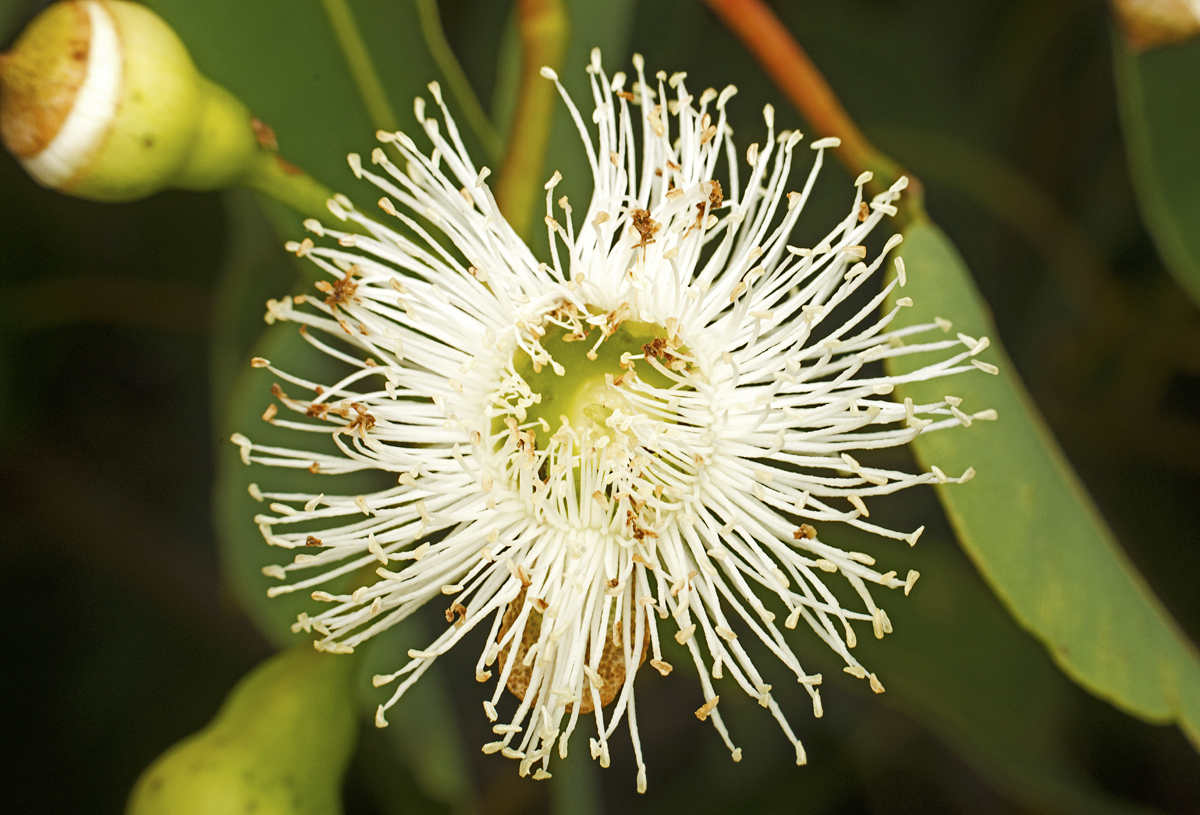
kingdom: Plantae
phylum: Tracheophyta
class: Magnoliopsida
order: Myrtales
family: Myrtaceae
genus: Corymbia
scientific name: Corymbia calophylla
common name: Marri
